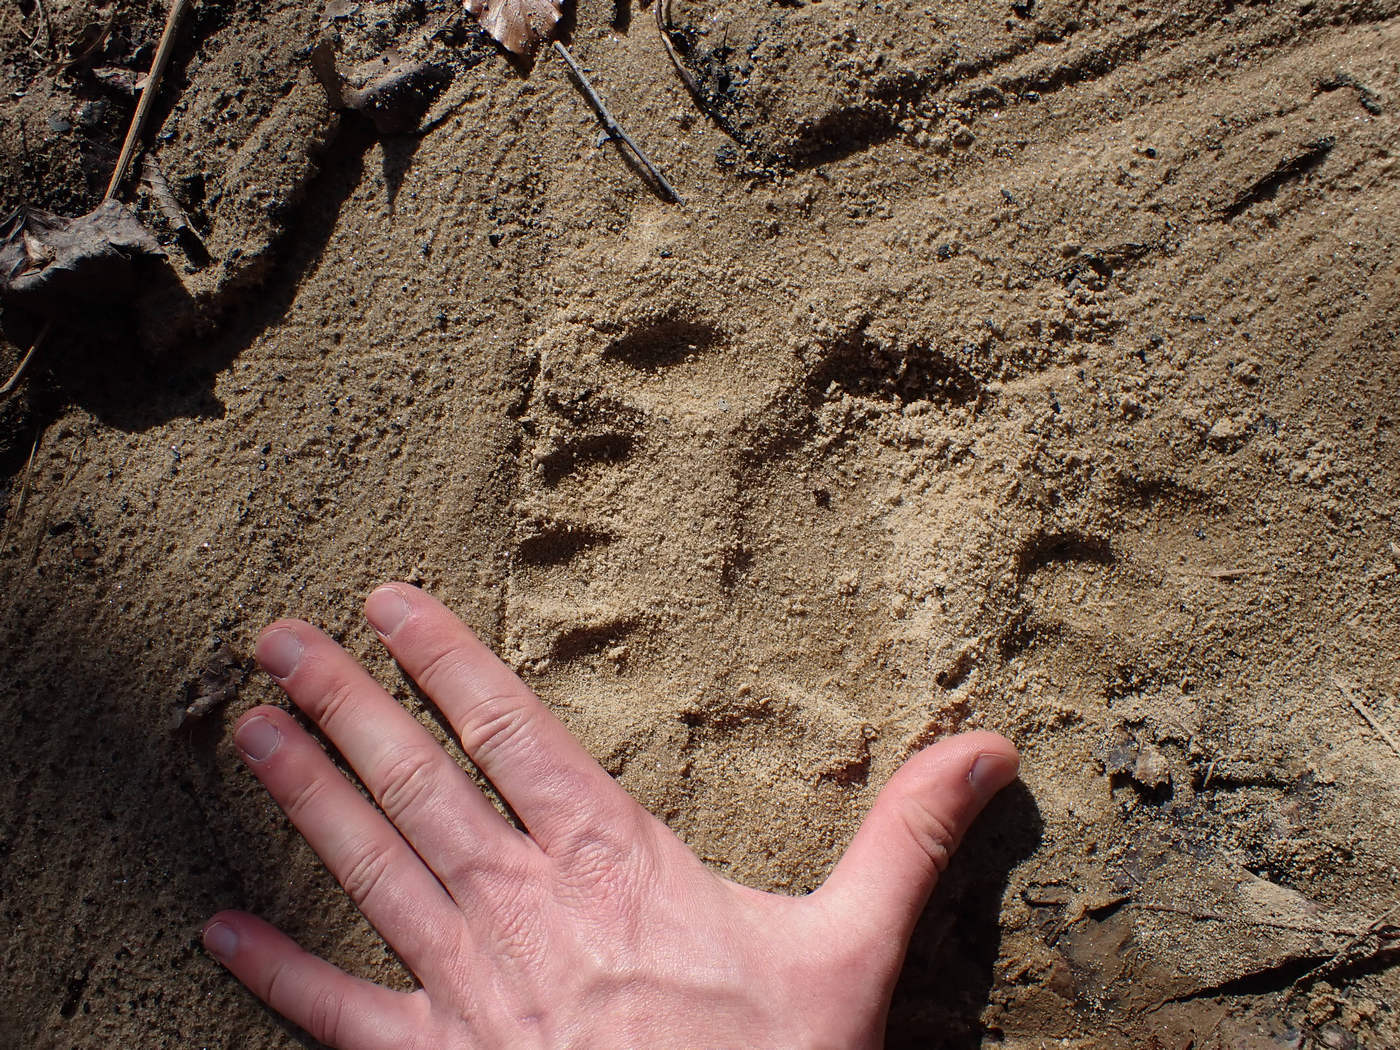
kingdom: Animalia
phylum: Chordata
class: Mammalia
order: Carnivora
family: Ursidae
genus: Ursus
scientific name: Ursus americanus
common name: American black bear
